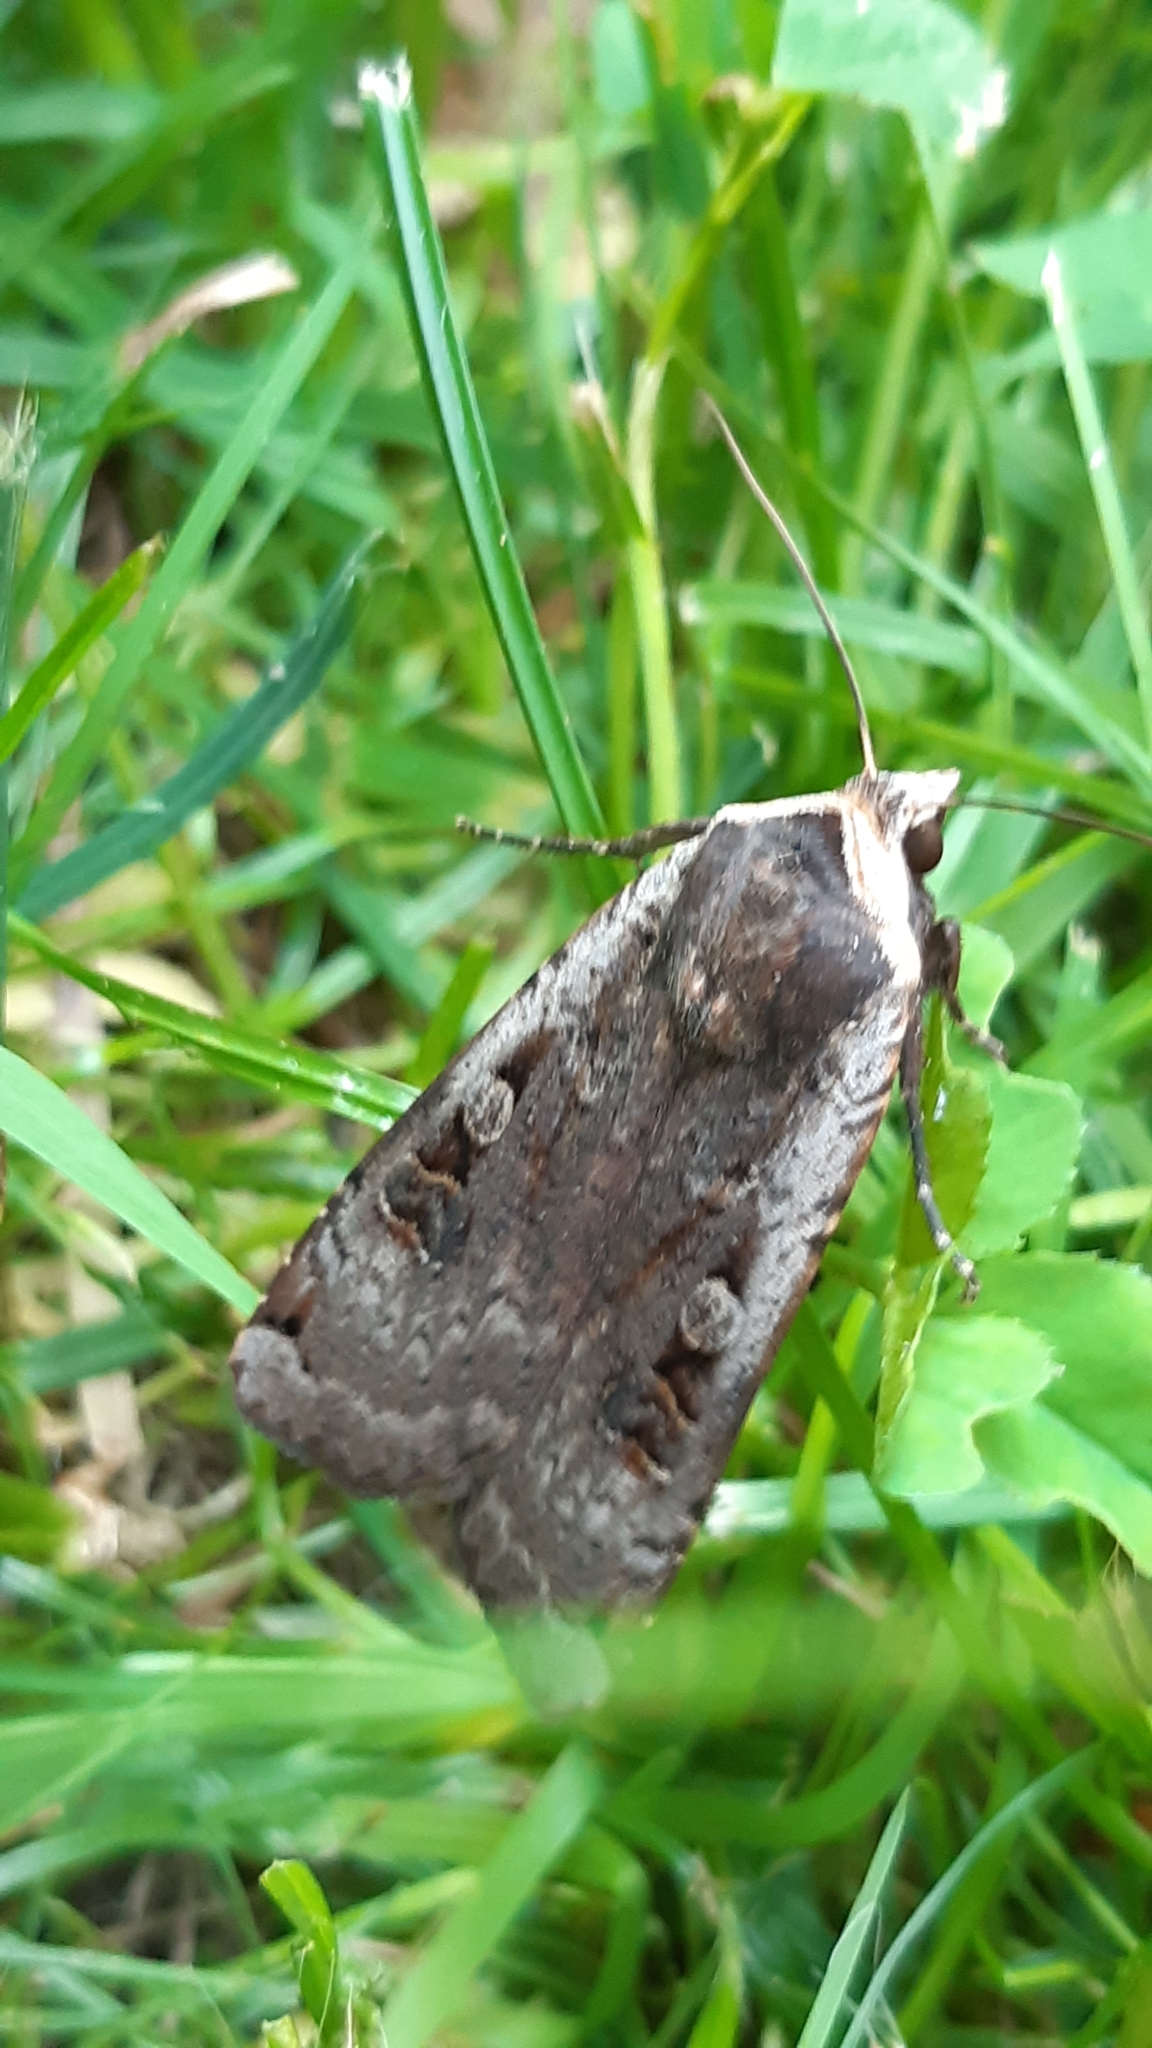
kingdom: Animalia
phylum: Arthropoda
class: Insecta
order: Lepidoptera
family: Noctuidae
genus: Noctua
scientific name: Noctua pronuba
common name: Large yellow underwing
